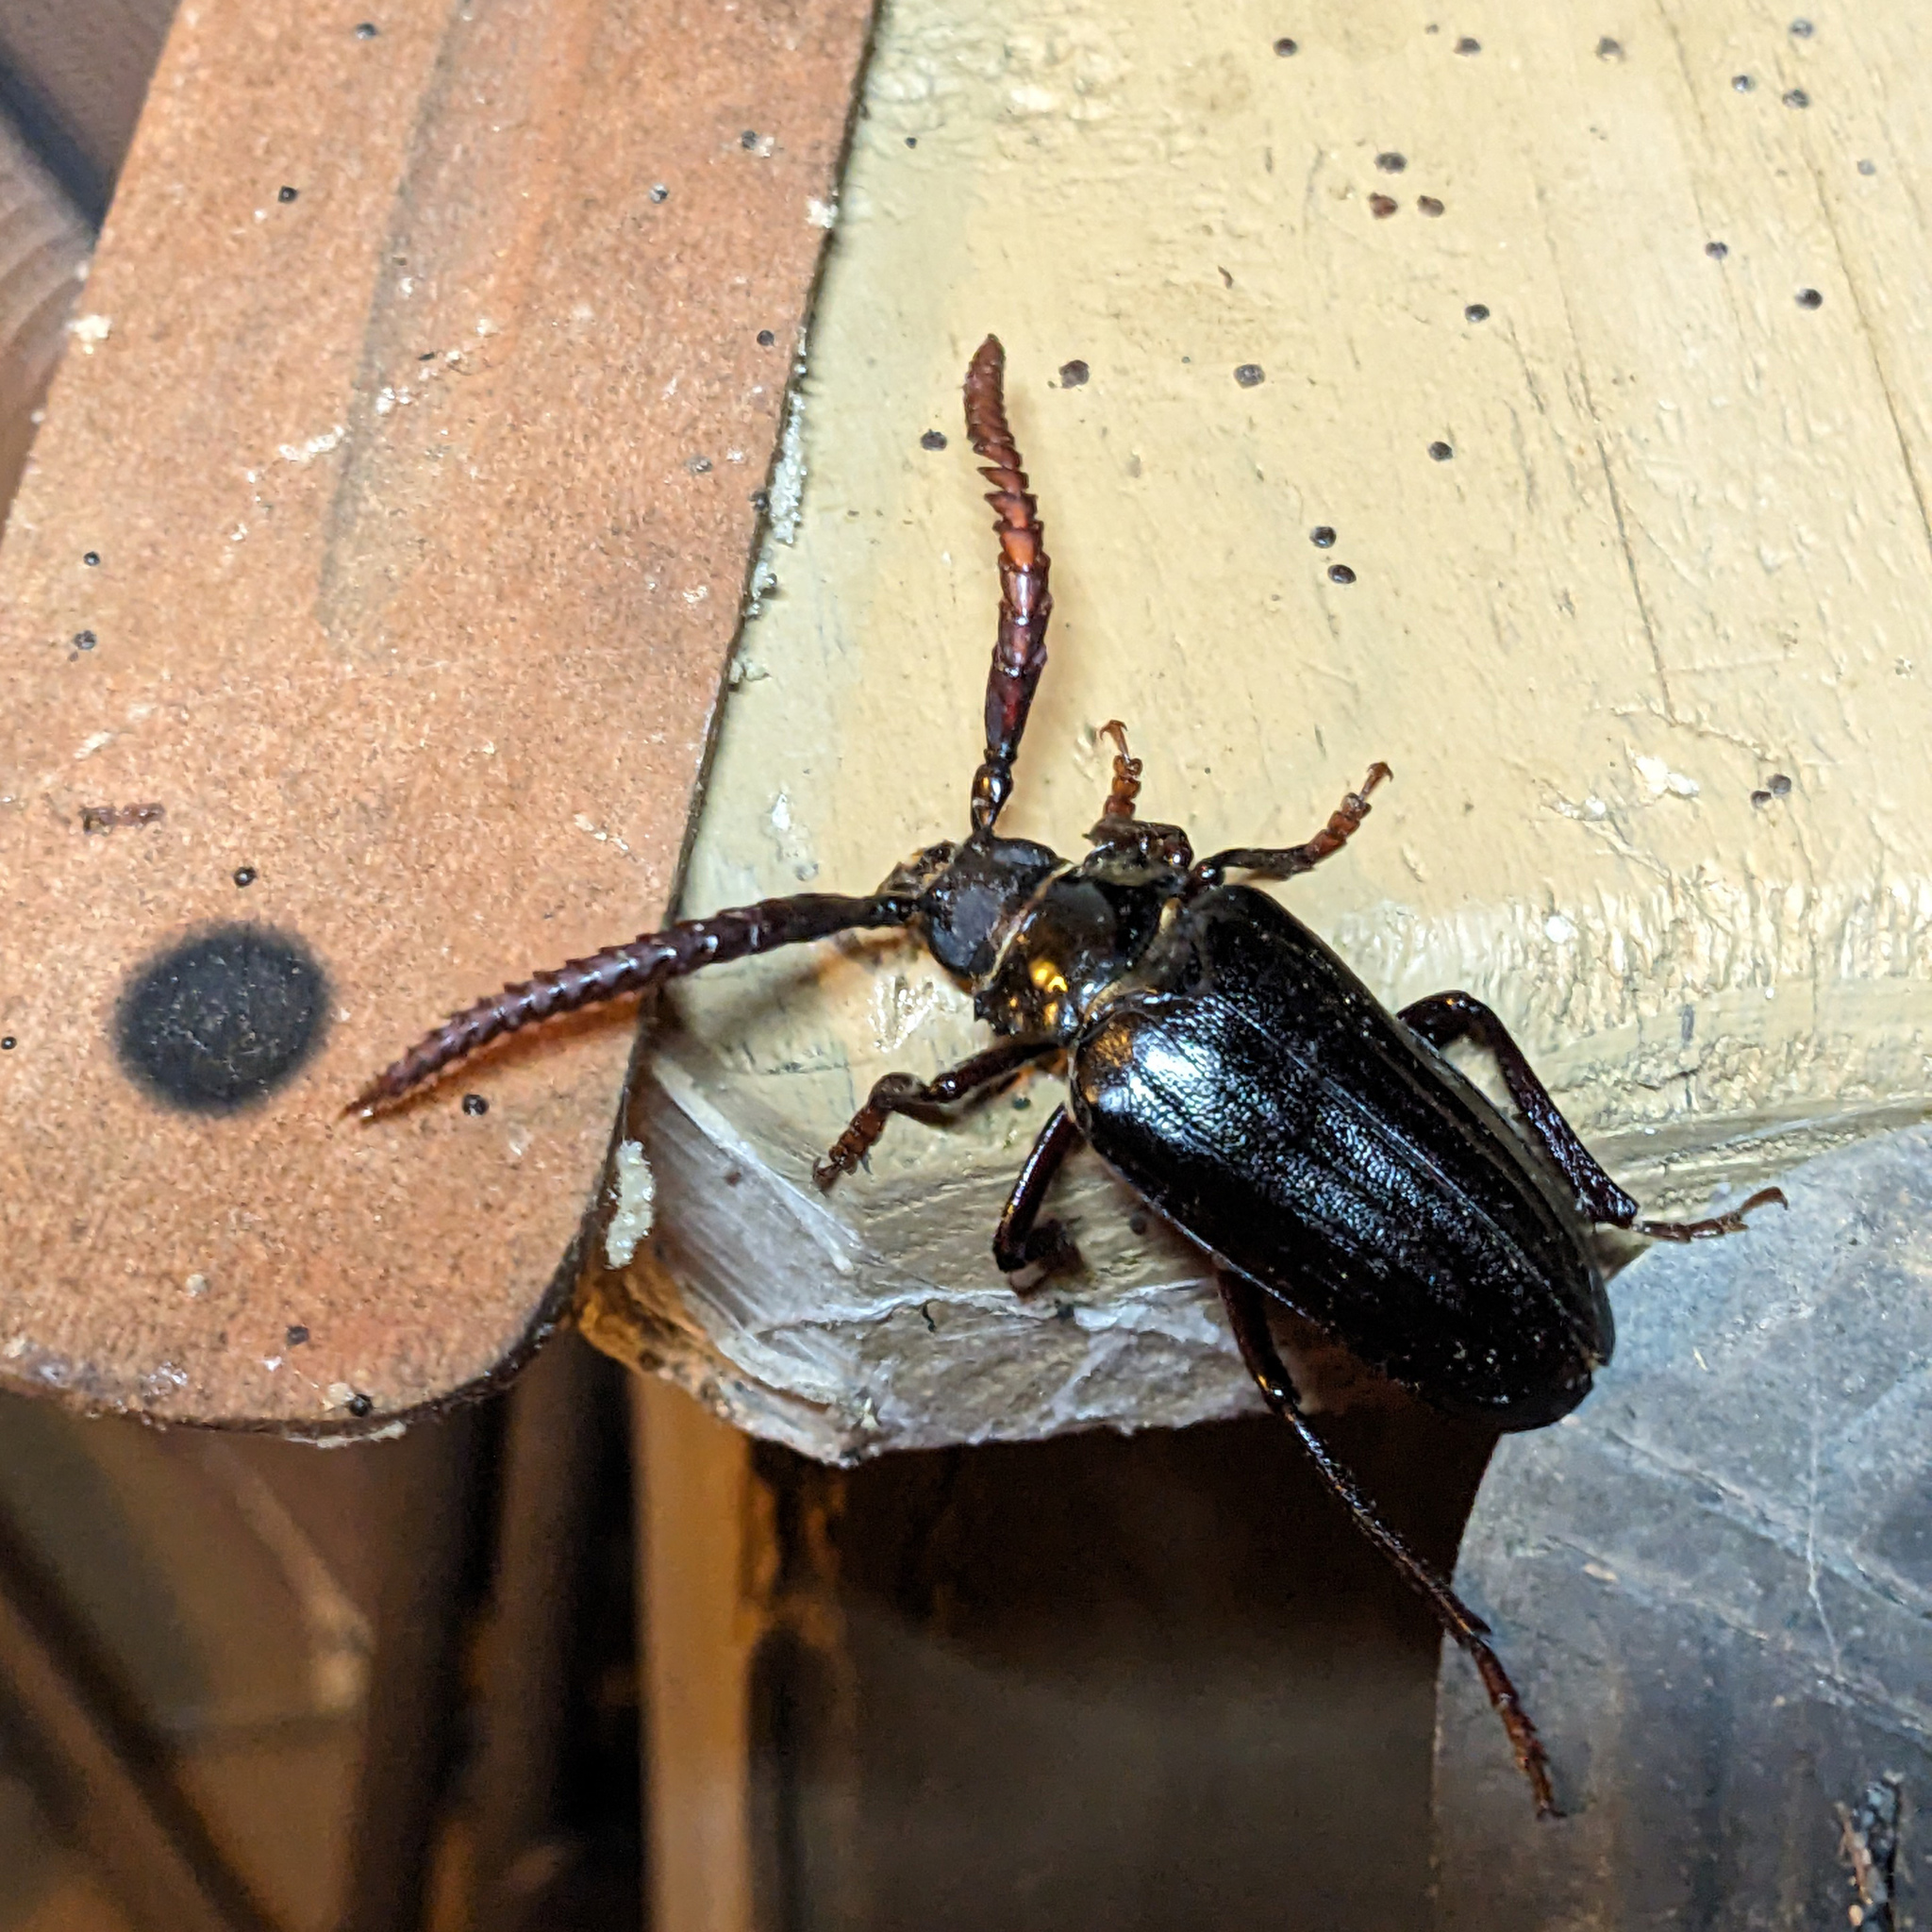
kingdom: Animalia
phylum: Arthropoda
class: Insecta
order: Coleoptera
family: Cerambycidae
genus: Prionus
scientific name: Prionus imbricornis
